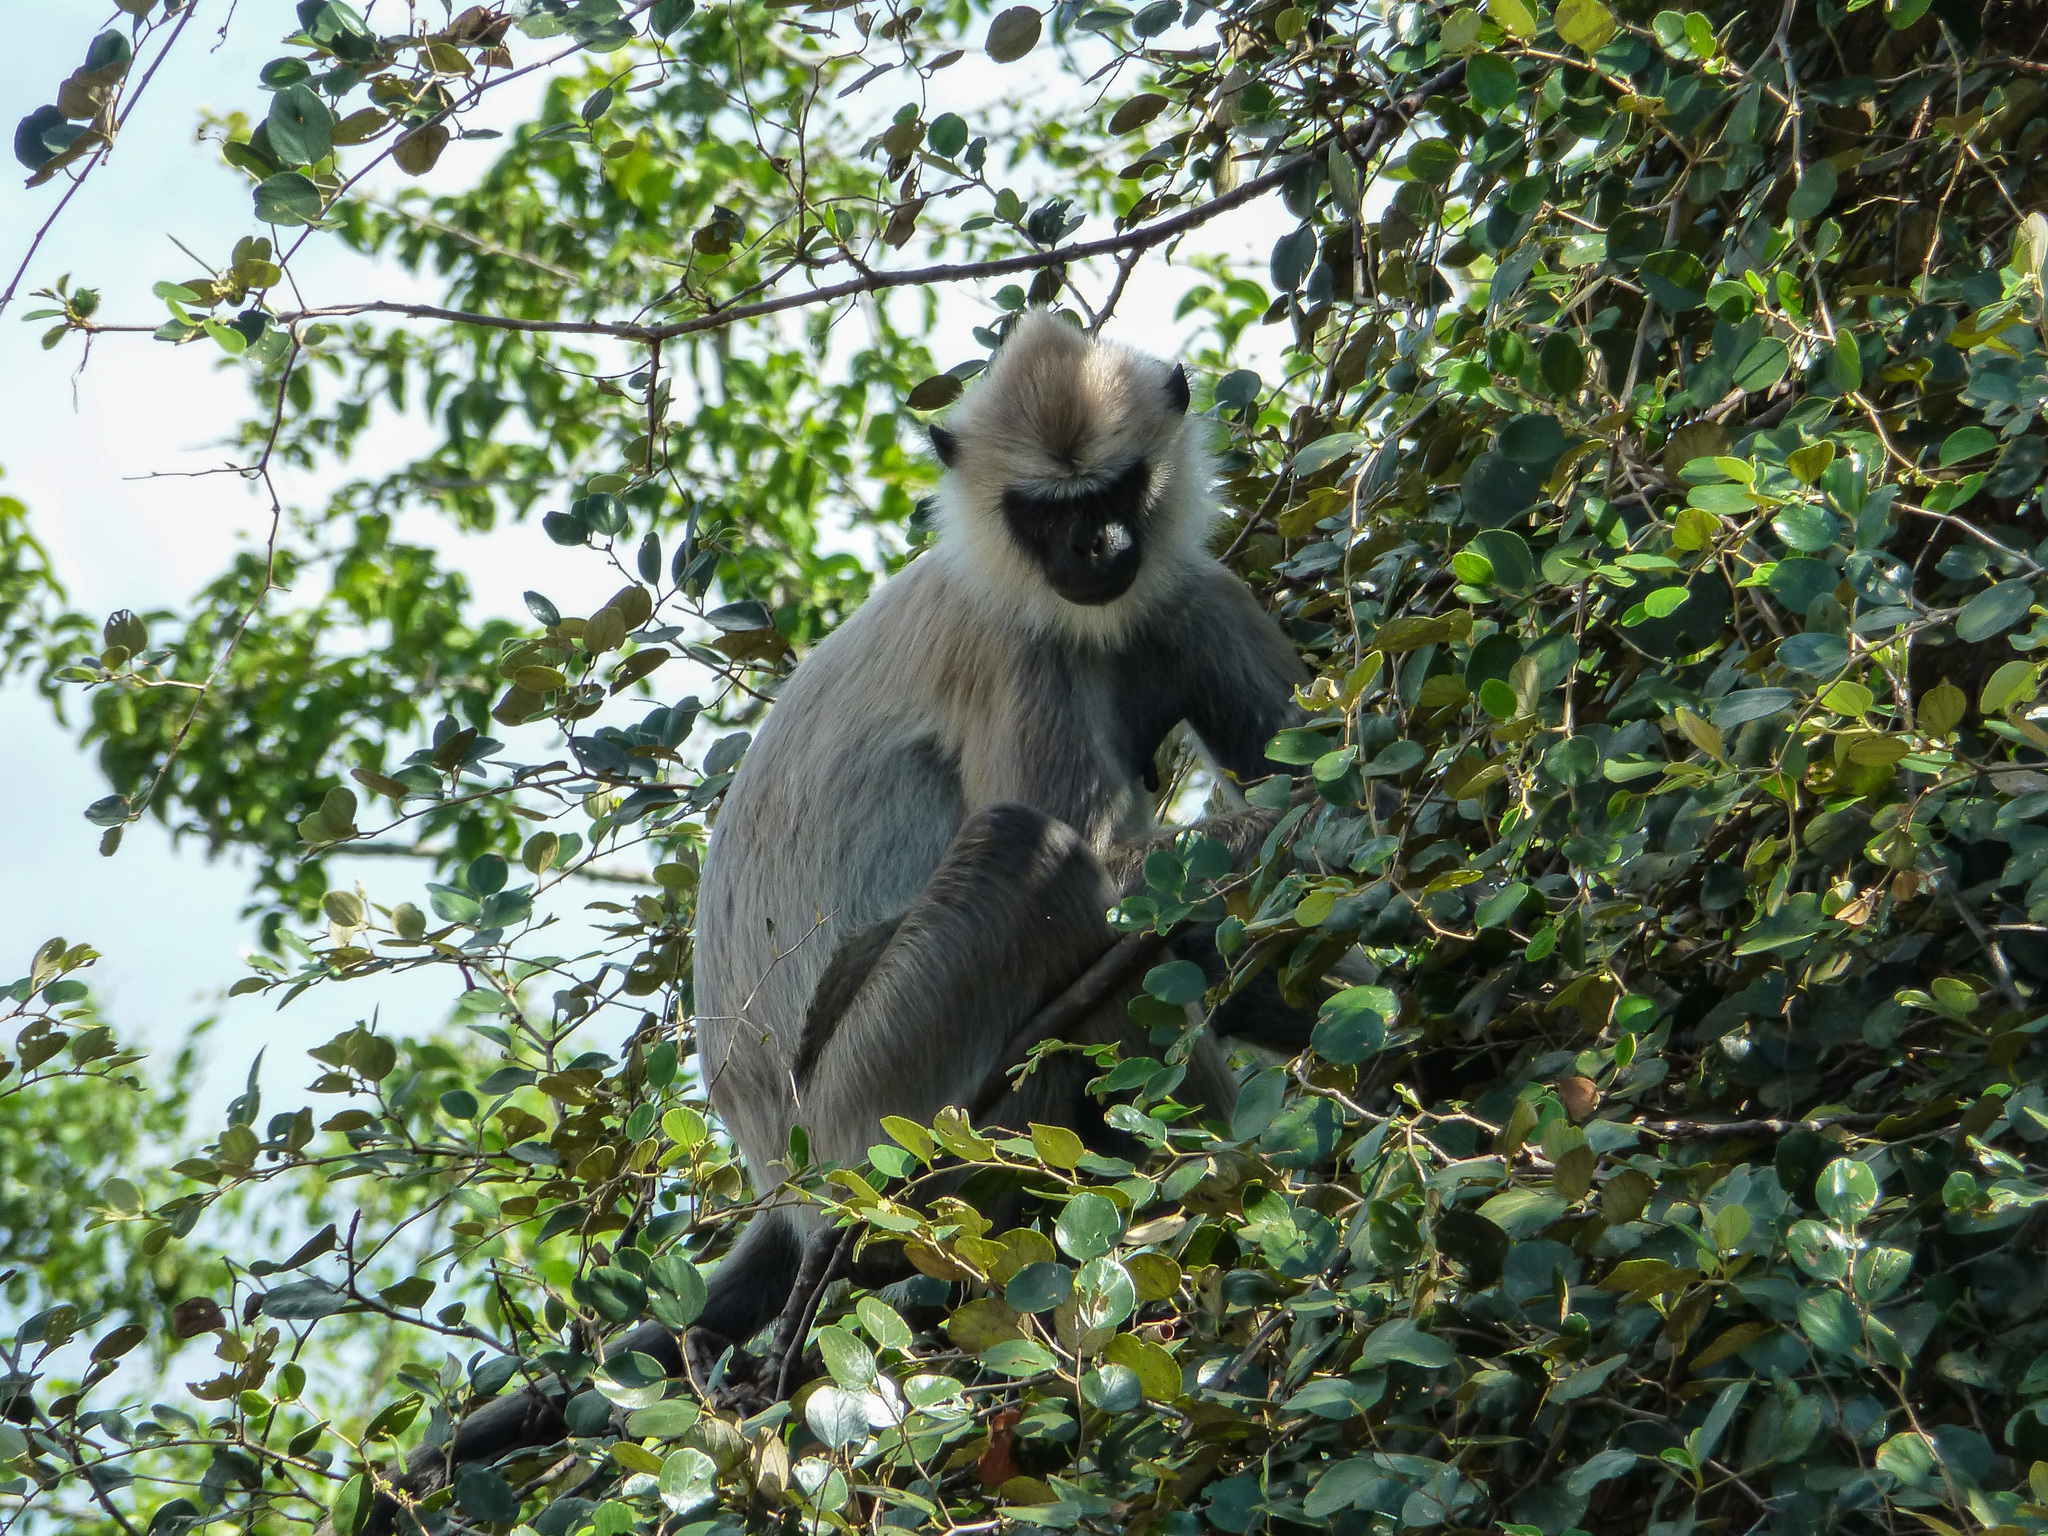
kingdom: Animalia
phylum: Chordata
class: Mammalia
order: Primates
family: Cercopithecidae
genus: Semnopithecus
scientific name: Semnopithecus priam
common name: Tufted gray langur
